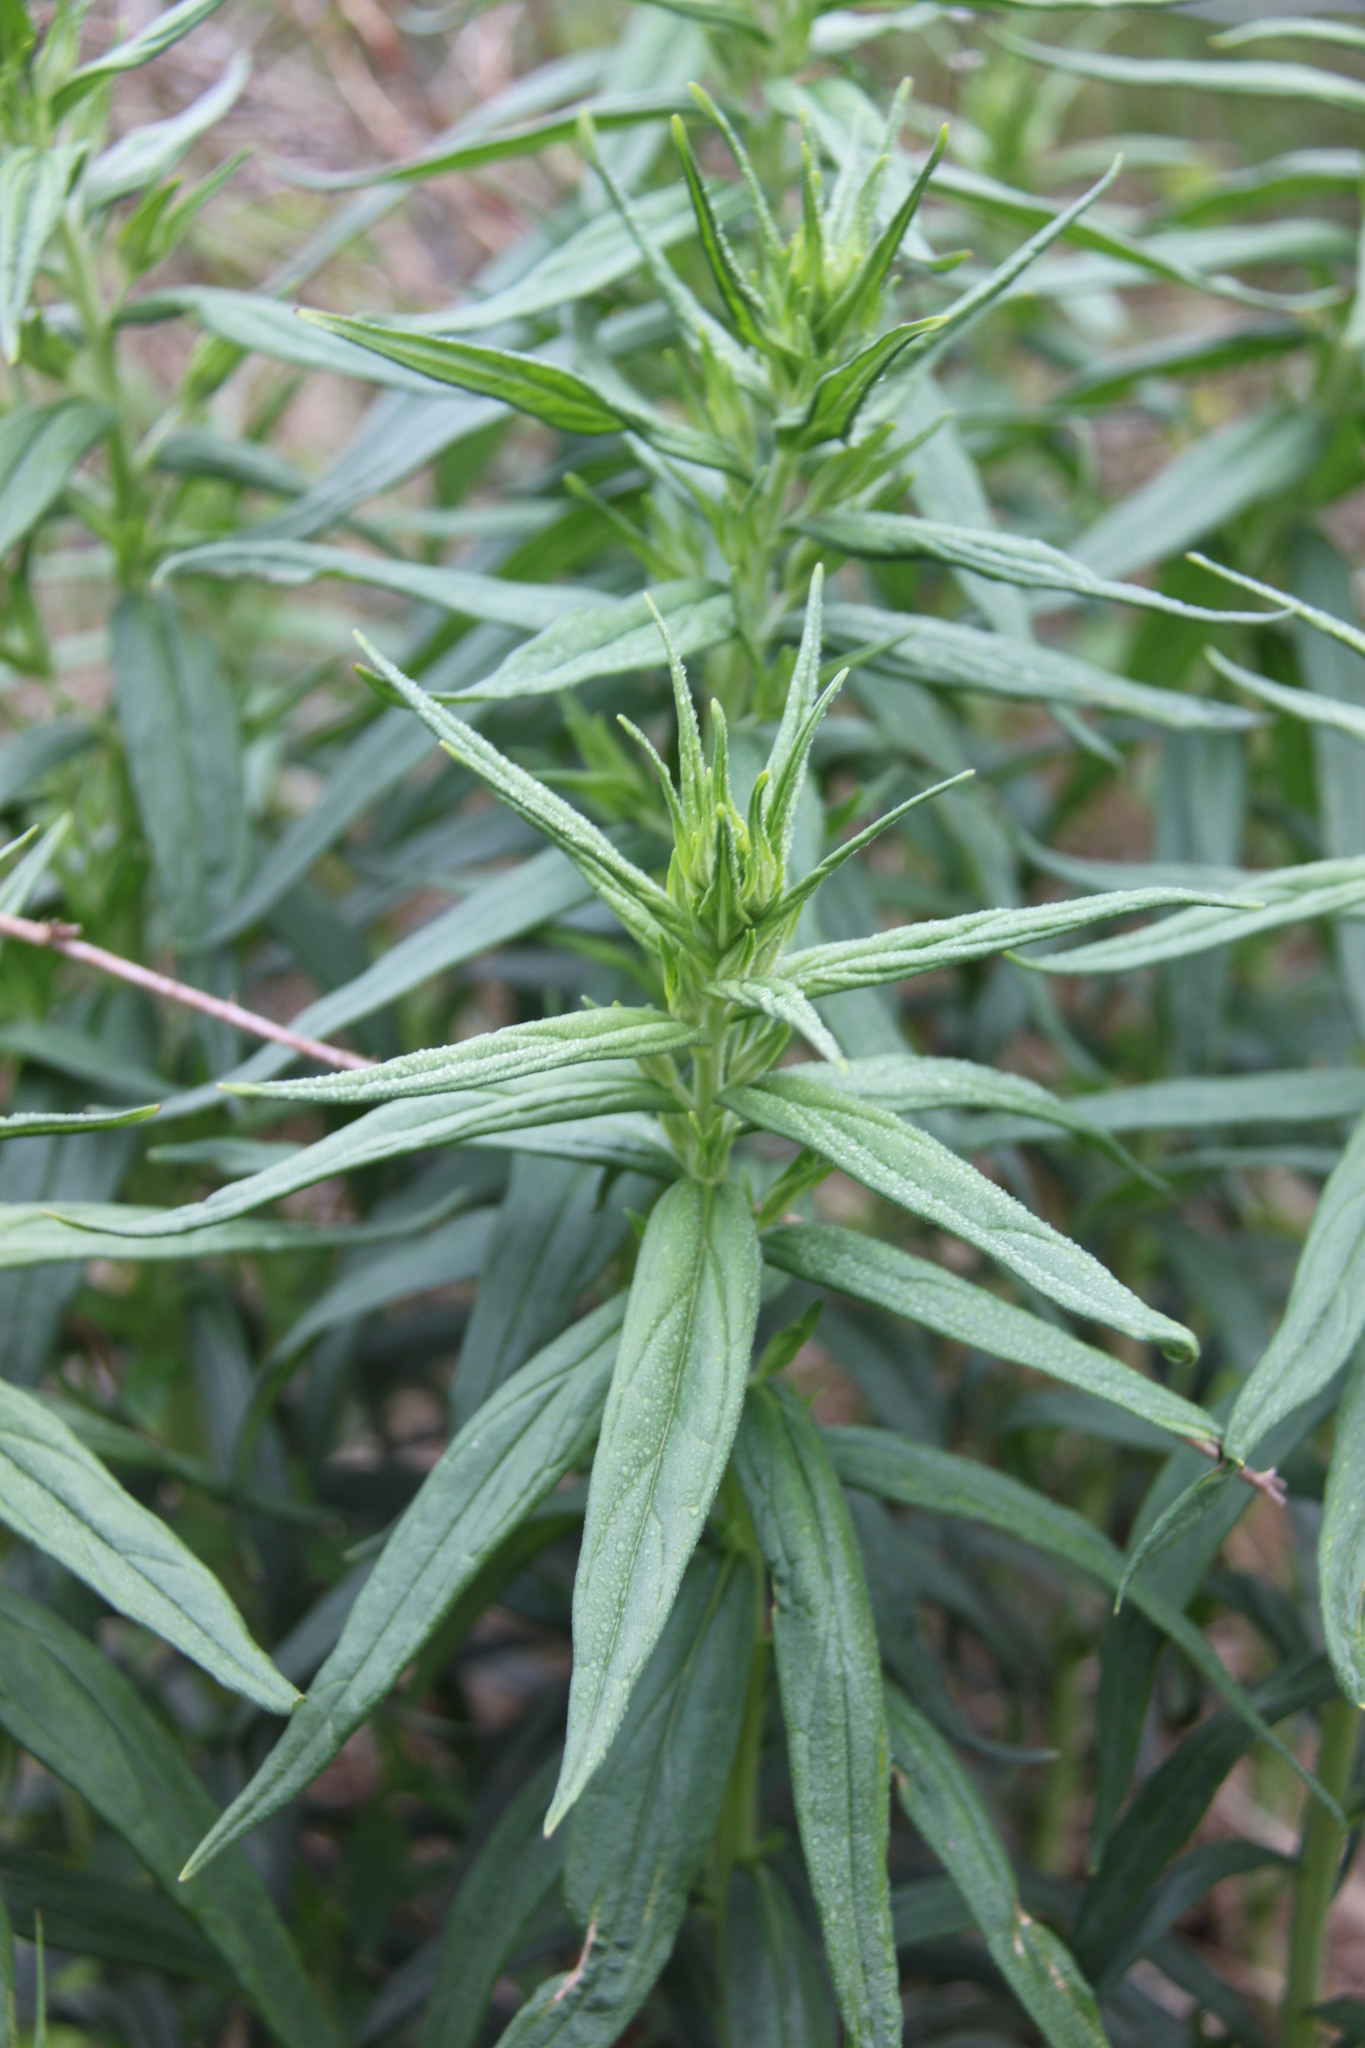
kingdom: Plantae
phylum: Tracheophyta
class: Magnoliopsida
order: Boraginales
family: Boraginaceae
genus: Lithospermum
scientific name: Lithospermum officinale
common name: Common gromwell
